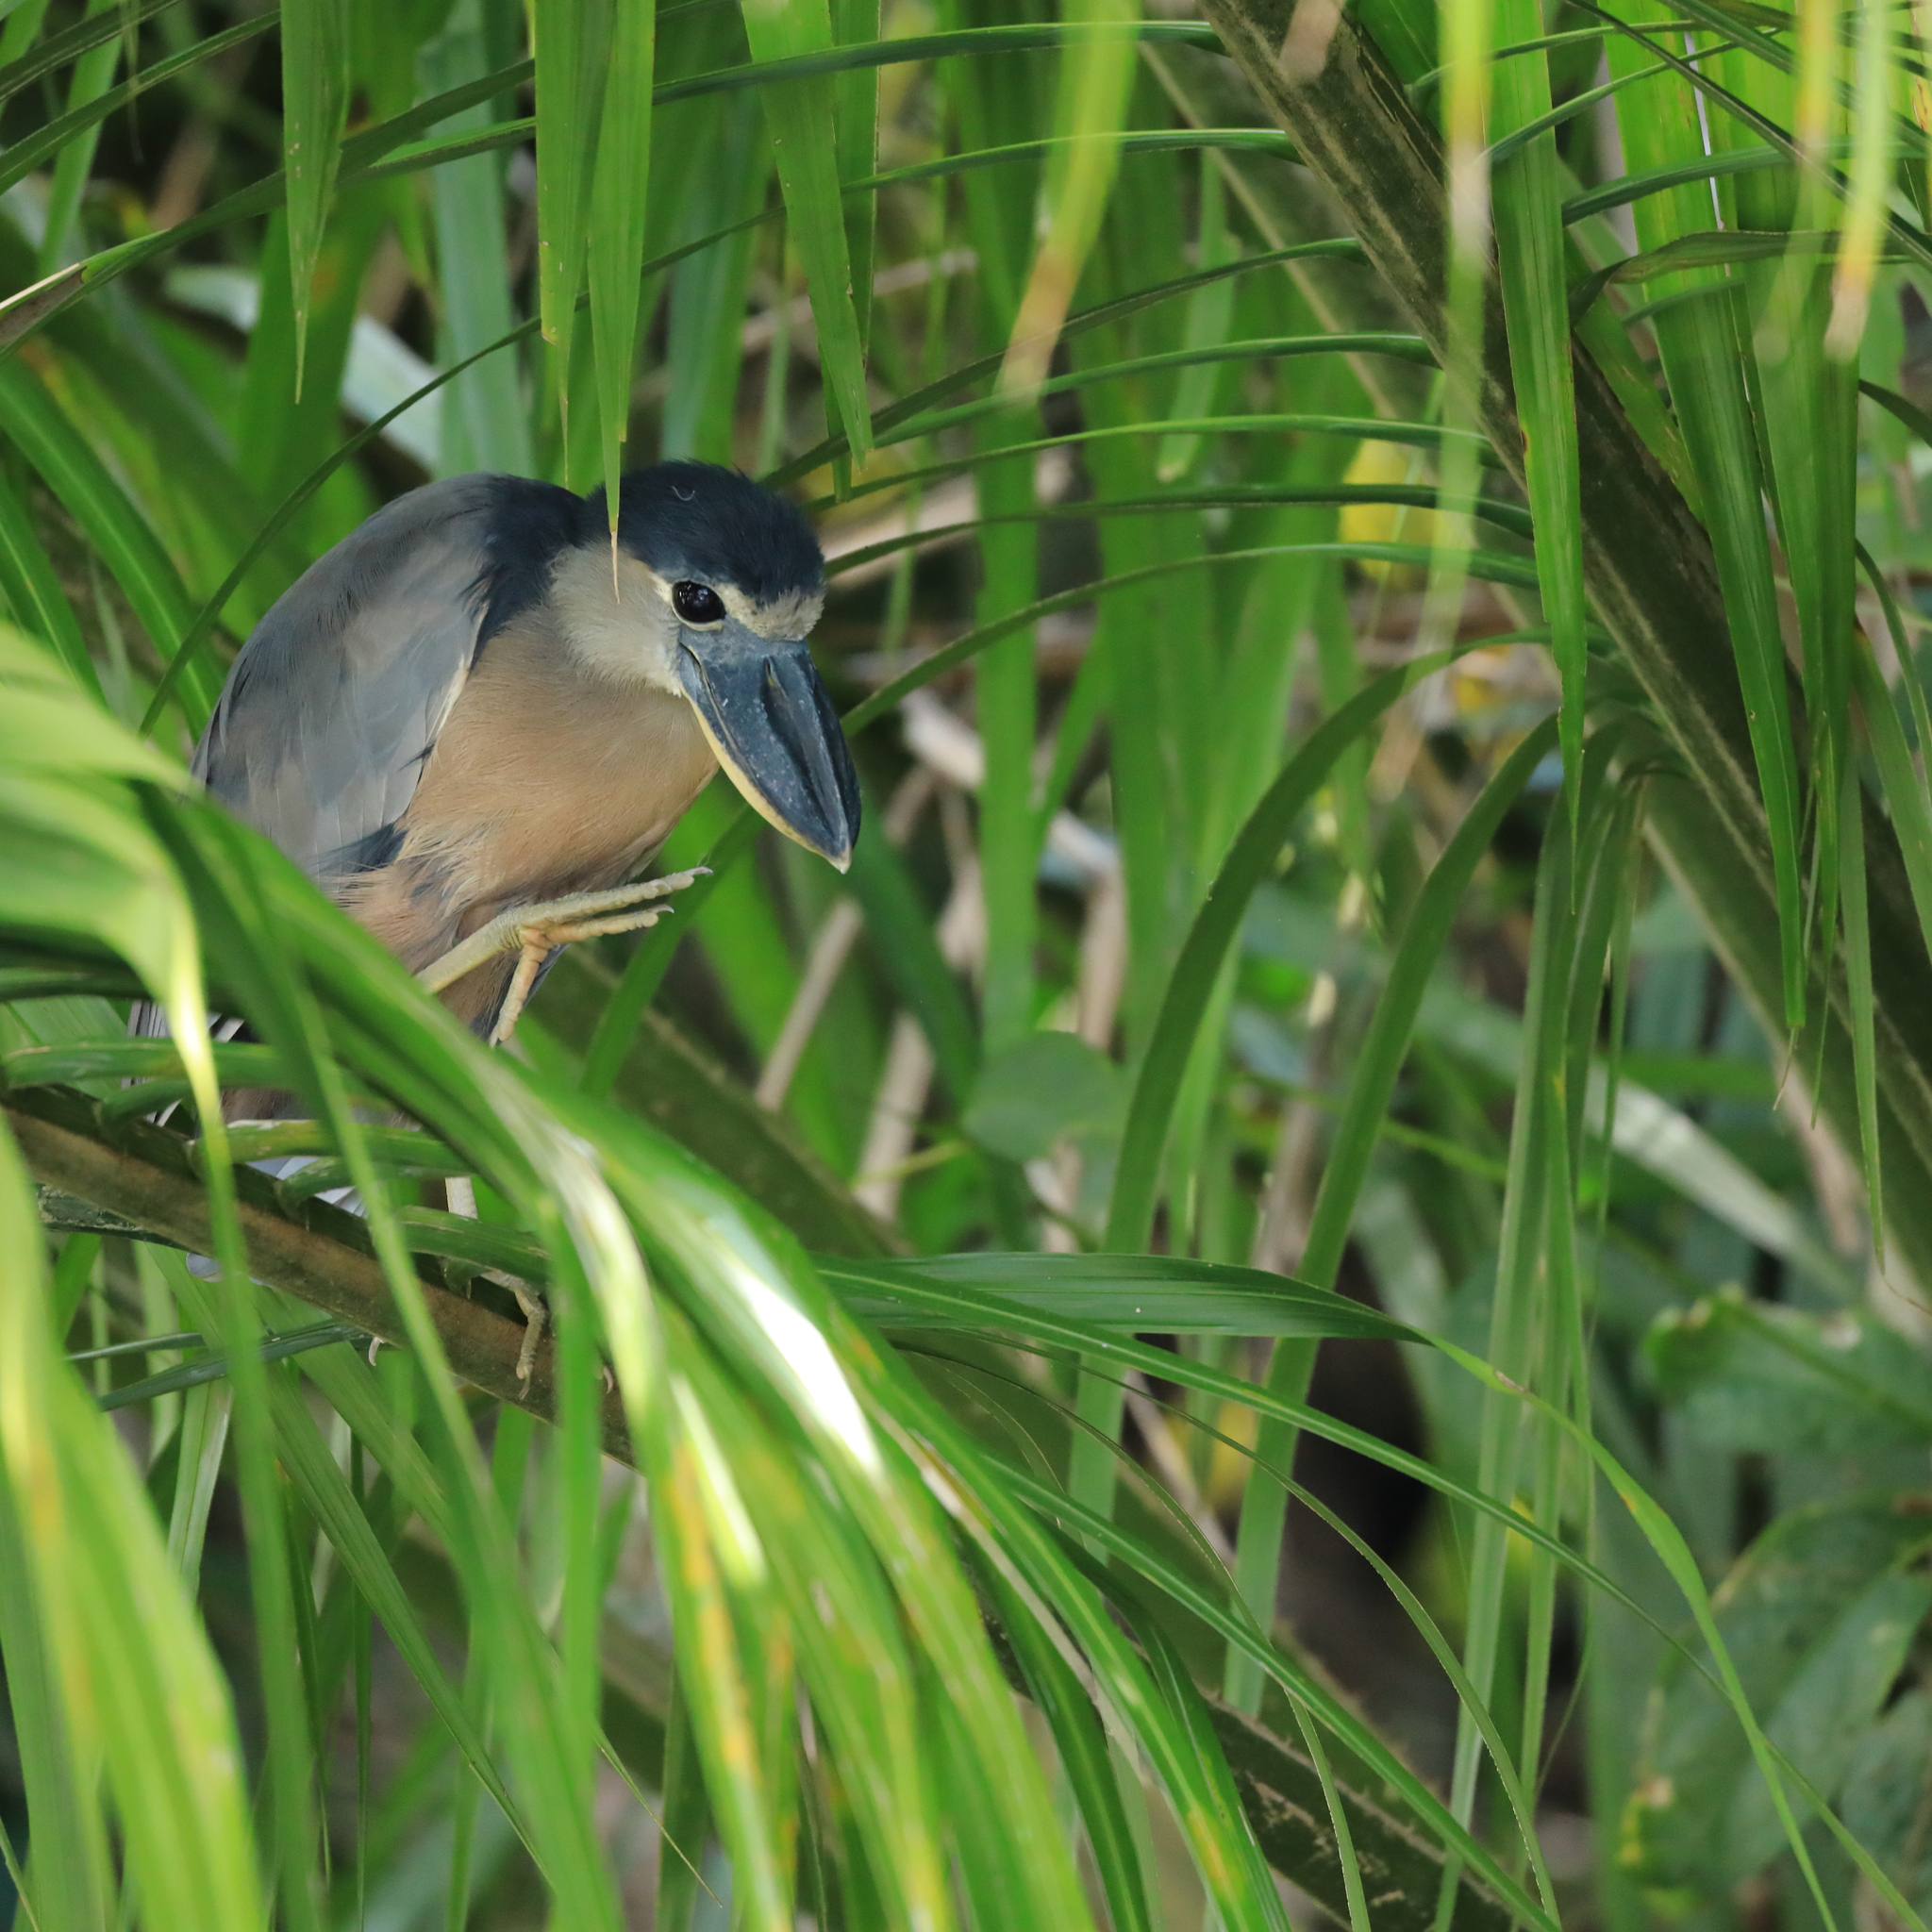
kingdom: Animalia
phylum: Chordata
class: Aves
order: Pelecaniformes
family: Ardeidae
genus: Cochlearius
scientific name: Cochlearius cochlearius
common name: Boat-billed heron
